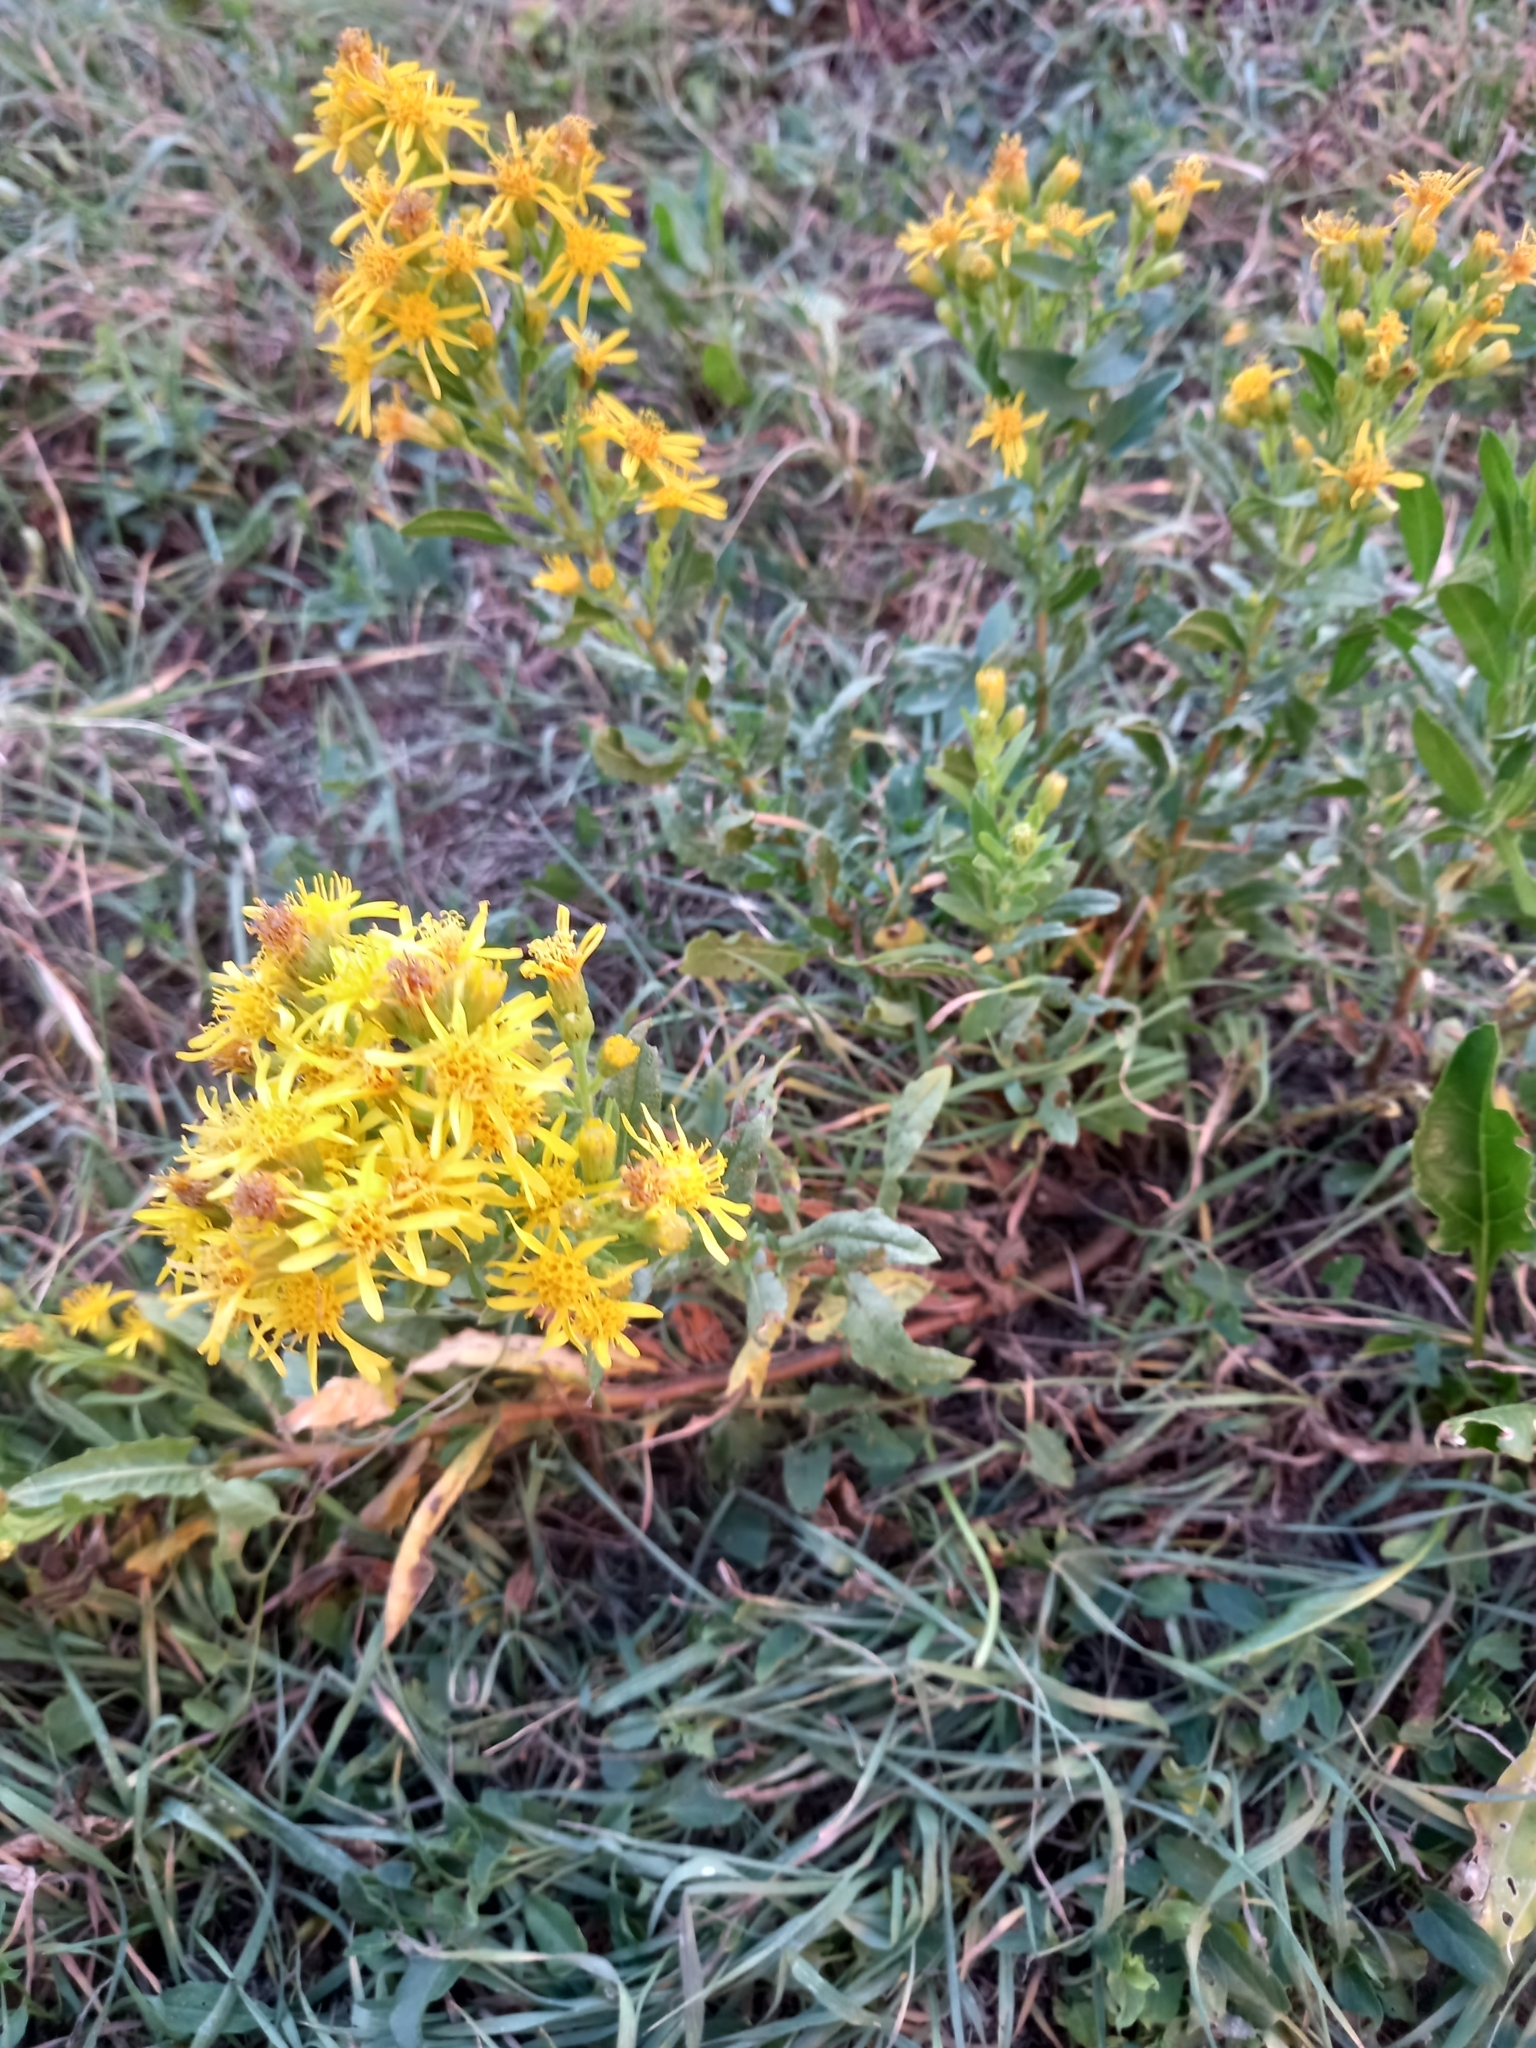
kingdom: Plantae
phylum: Tracheophyta
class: Magnoliopsida
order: Asterales
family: Asteraceae
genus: Dittrichia
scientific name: Dittrichia viscosa
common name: Woody fleabane
